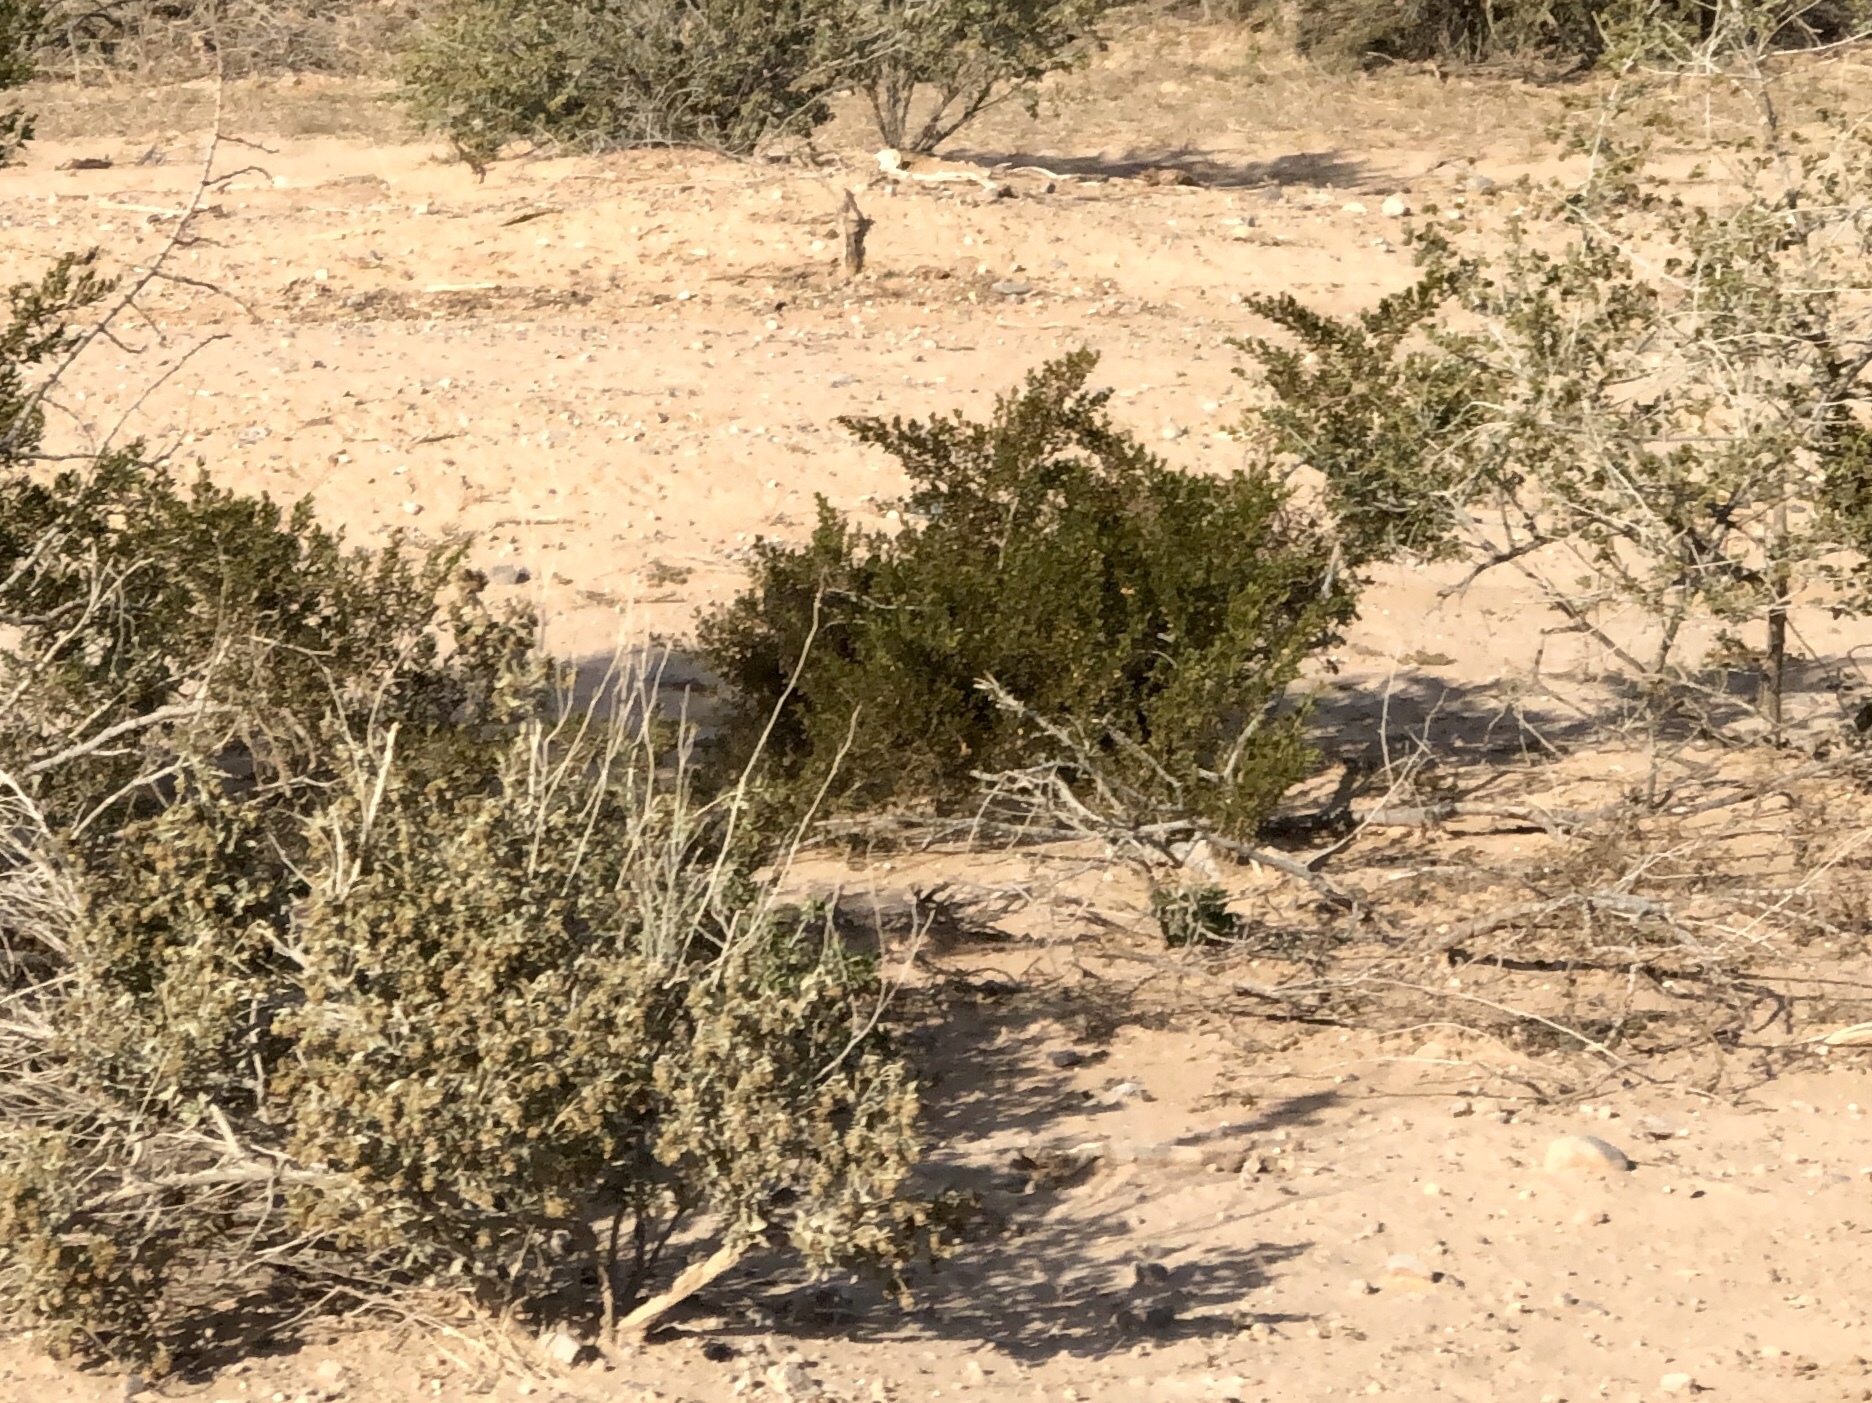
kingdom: Plantae
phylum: Tracheophyta
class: Magnoliopsida
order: Zygophyllales
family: Zygophyllaceae
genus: Larrea
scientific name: Larrea tridentata
